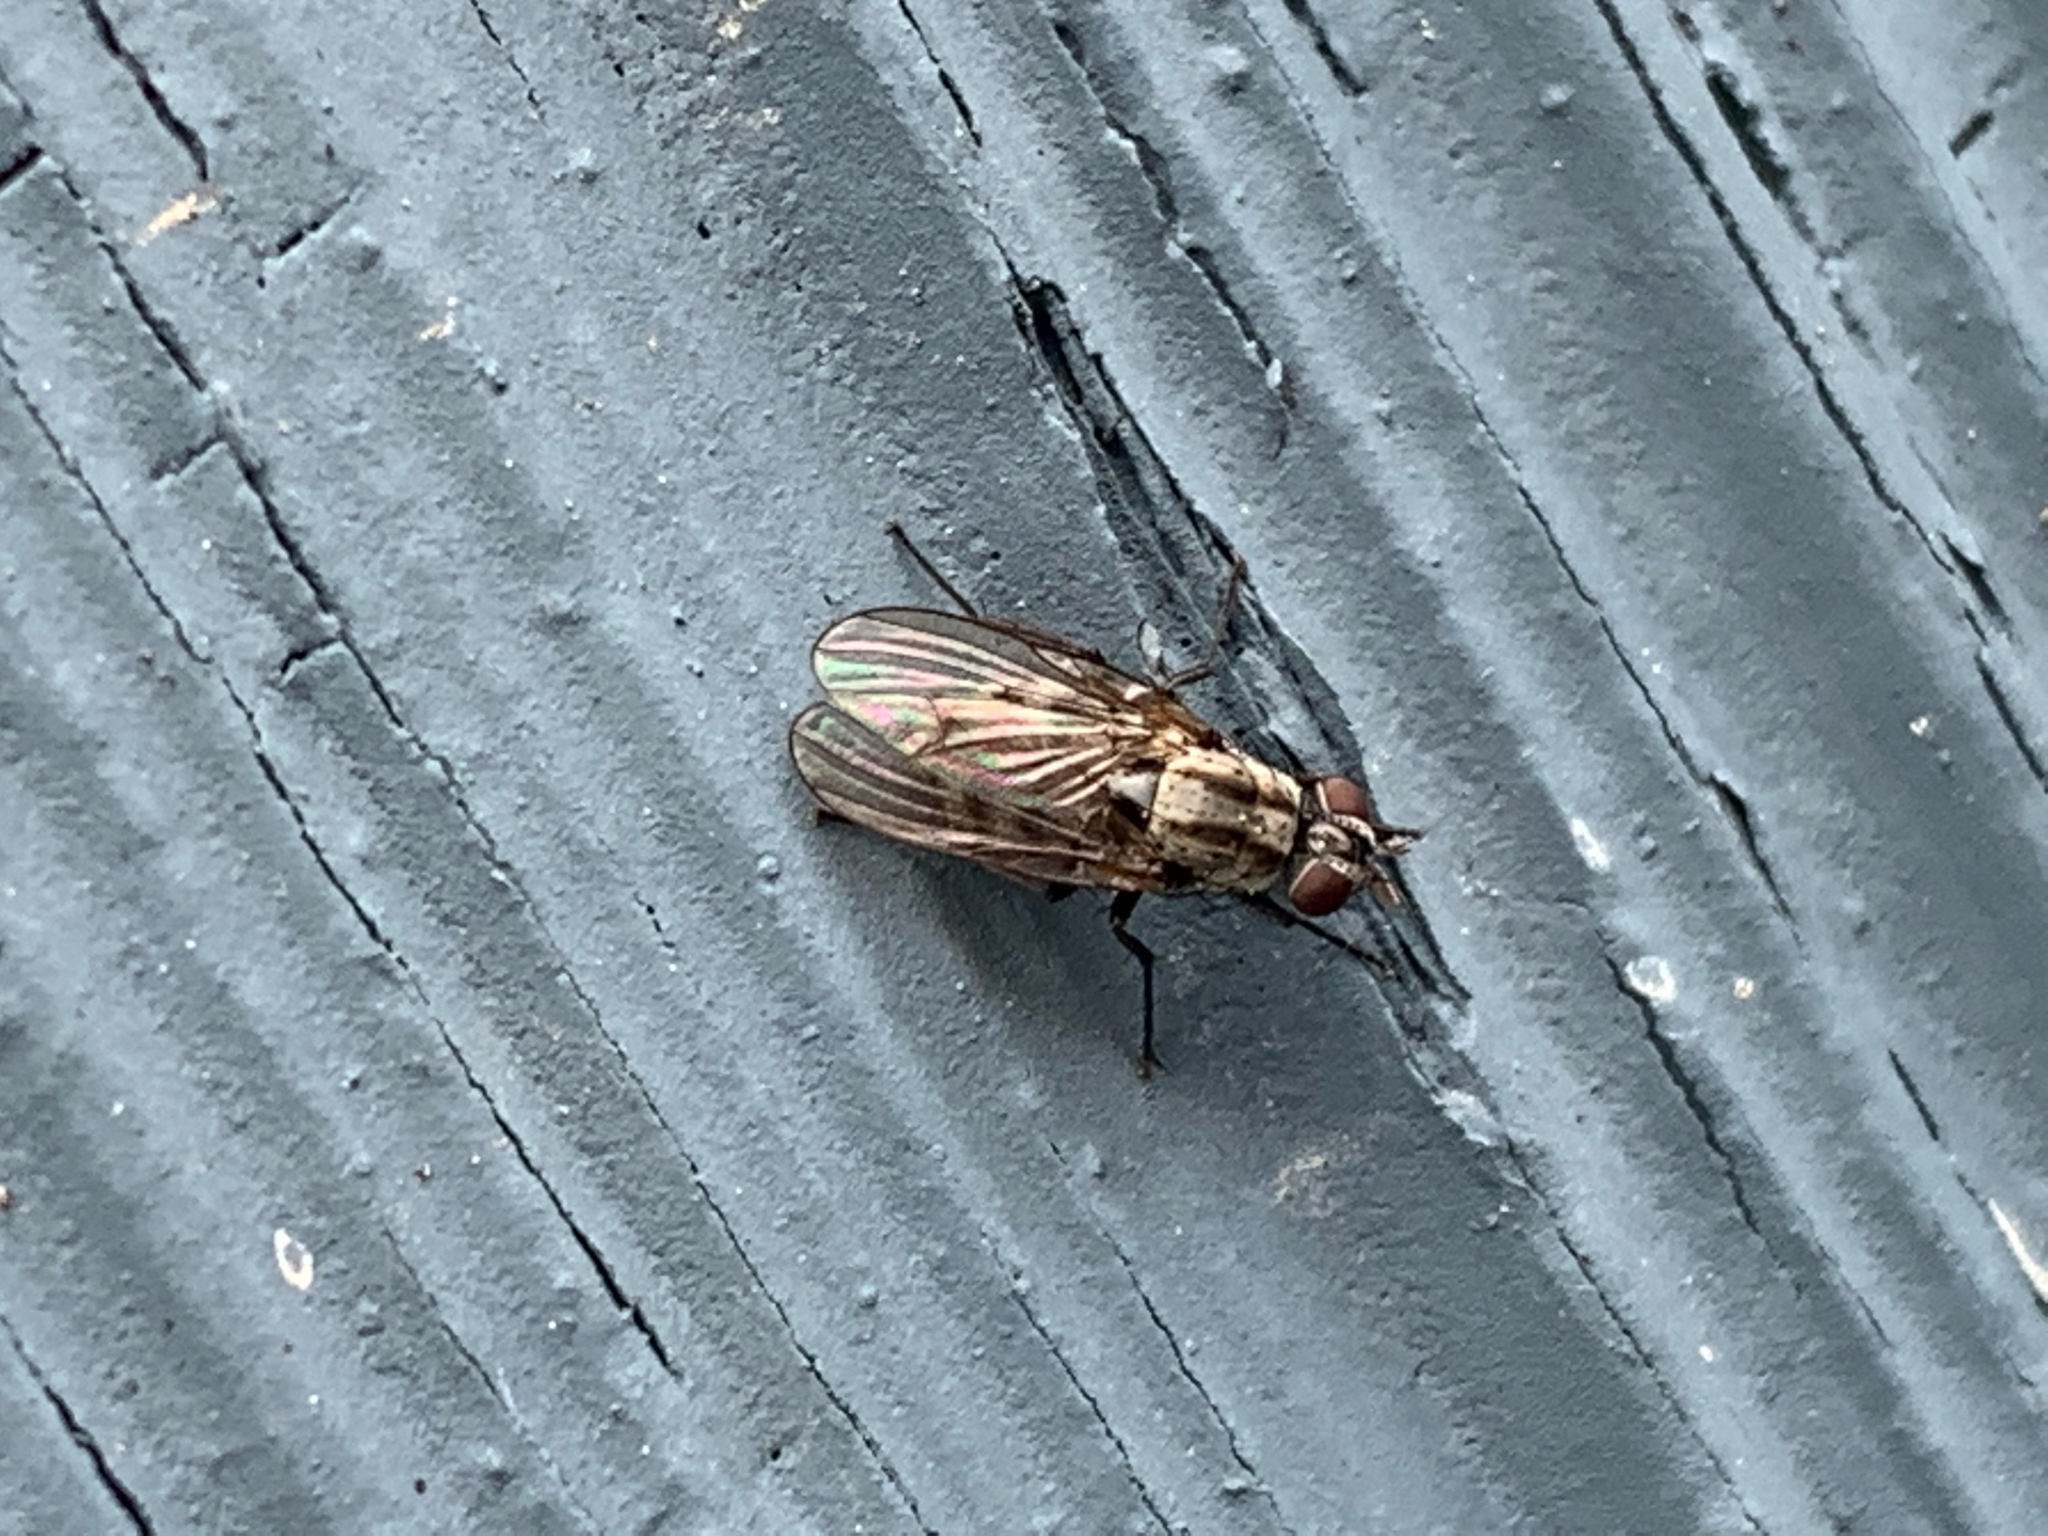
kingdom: Animalia
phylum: Arthropoda
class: Insecta
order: Diptera
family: Anthomyiidae
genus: Anthomyia
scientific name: Anthomyia oculifera
